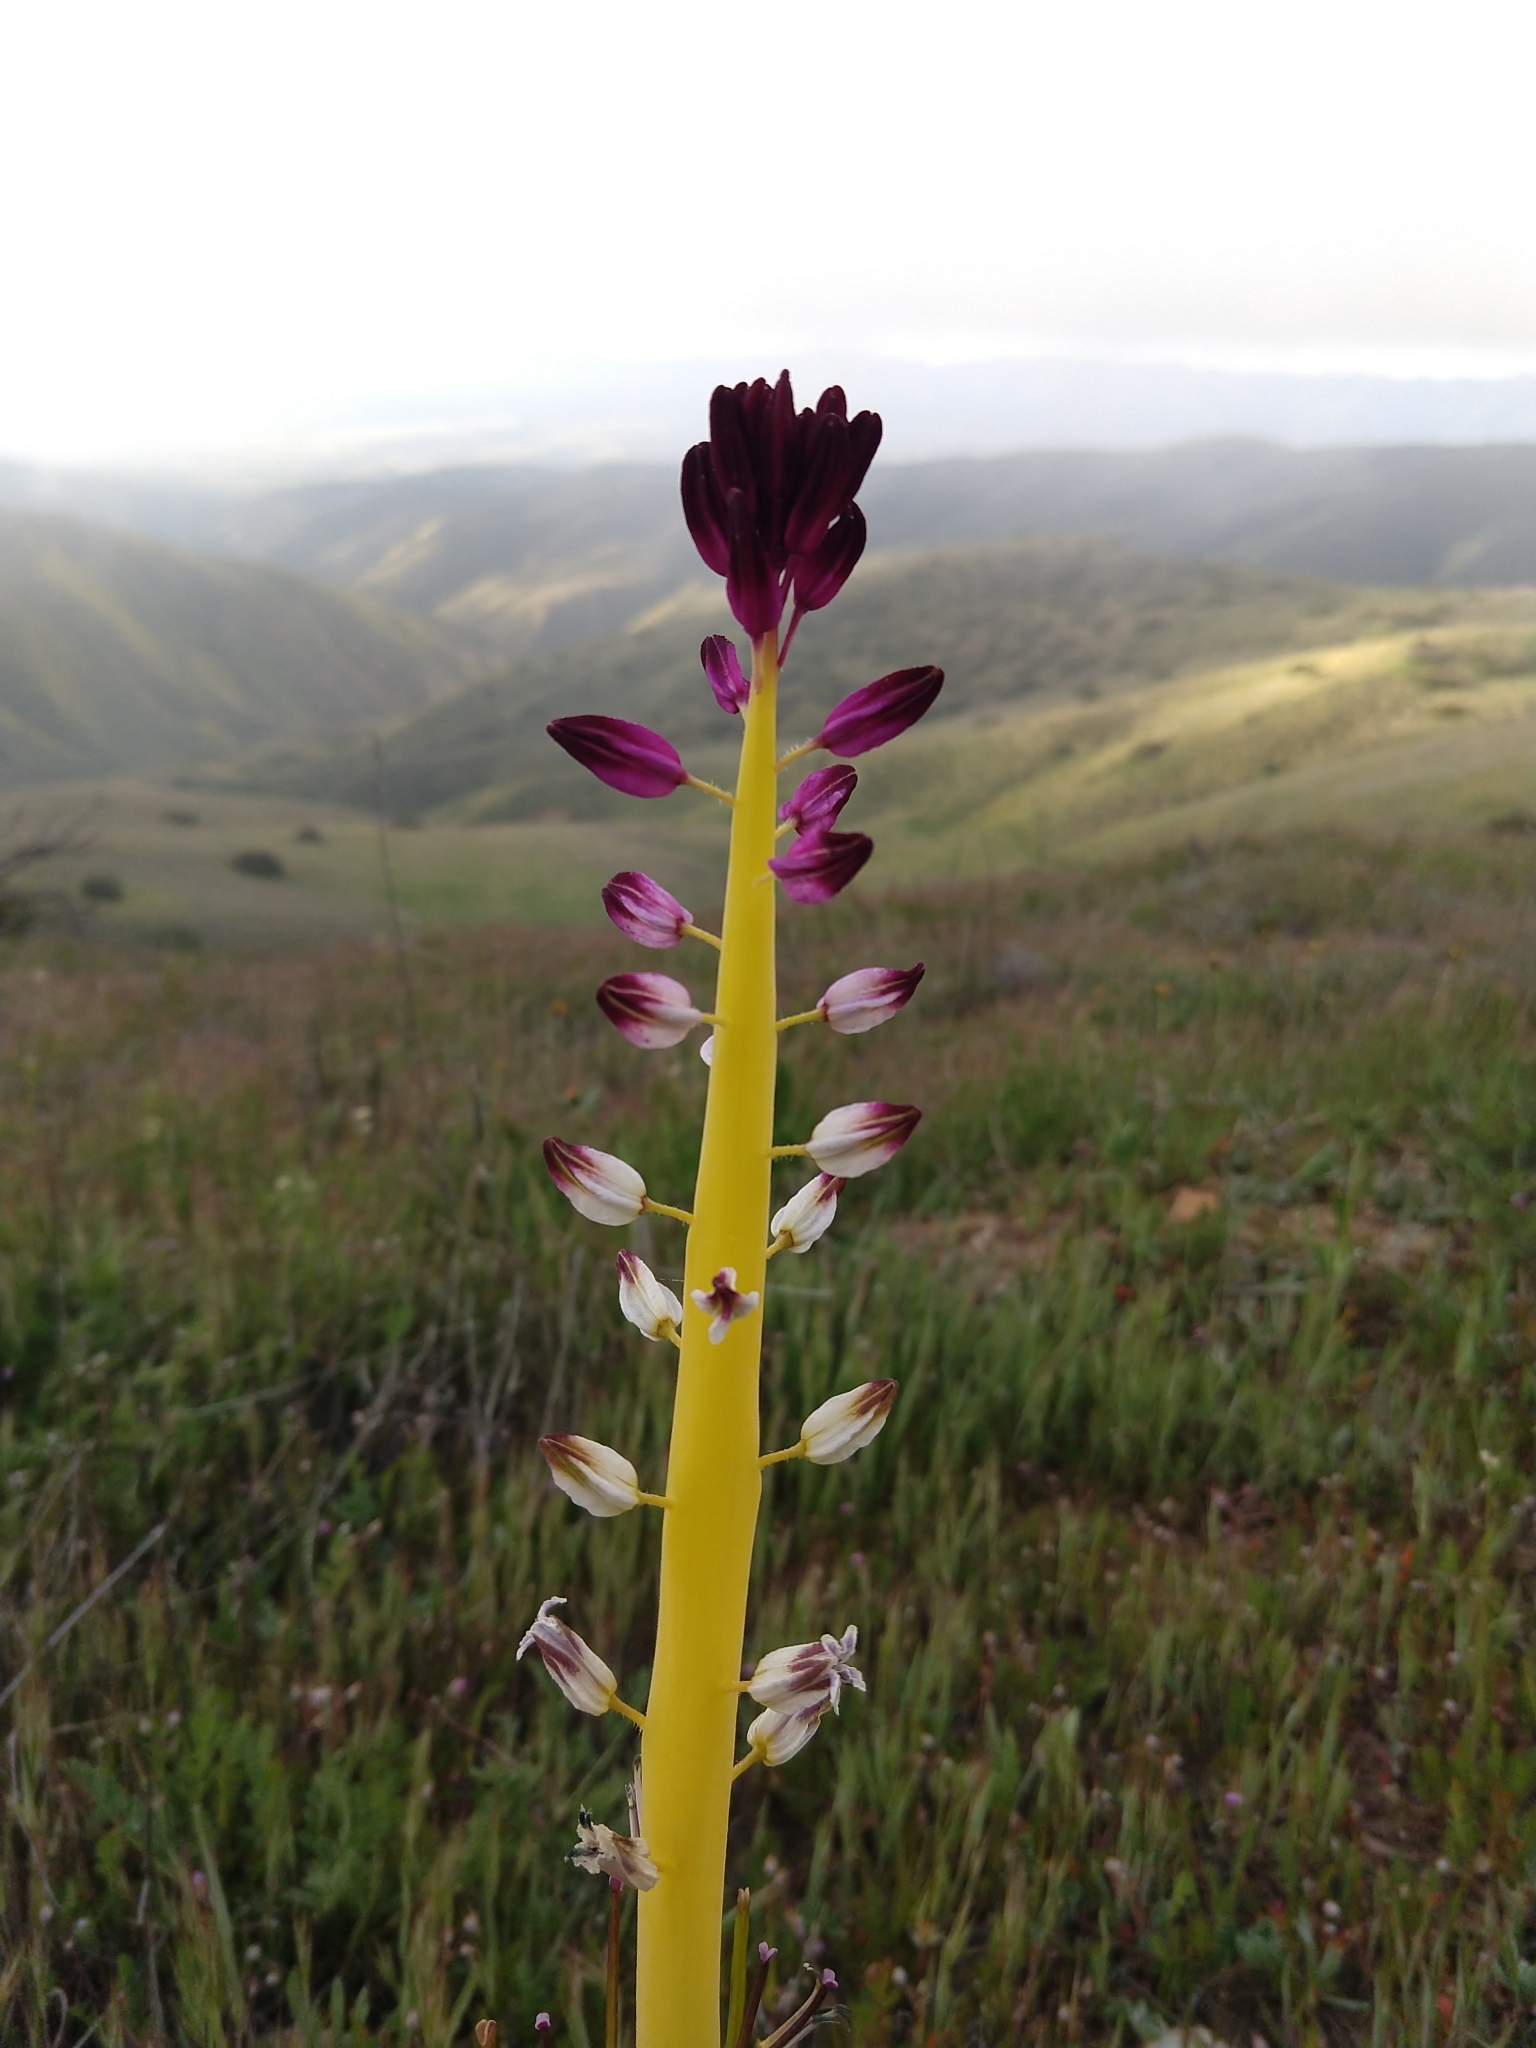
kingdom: Plantae
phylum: Tracheophyta
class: Magnoliopsida
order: Brassicales
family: Brassicaceae
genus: Streptanthus
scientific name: Streptanthus inflatus
